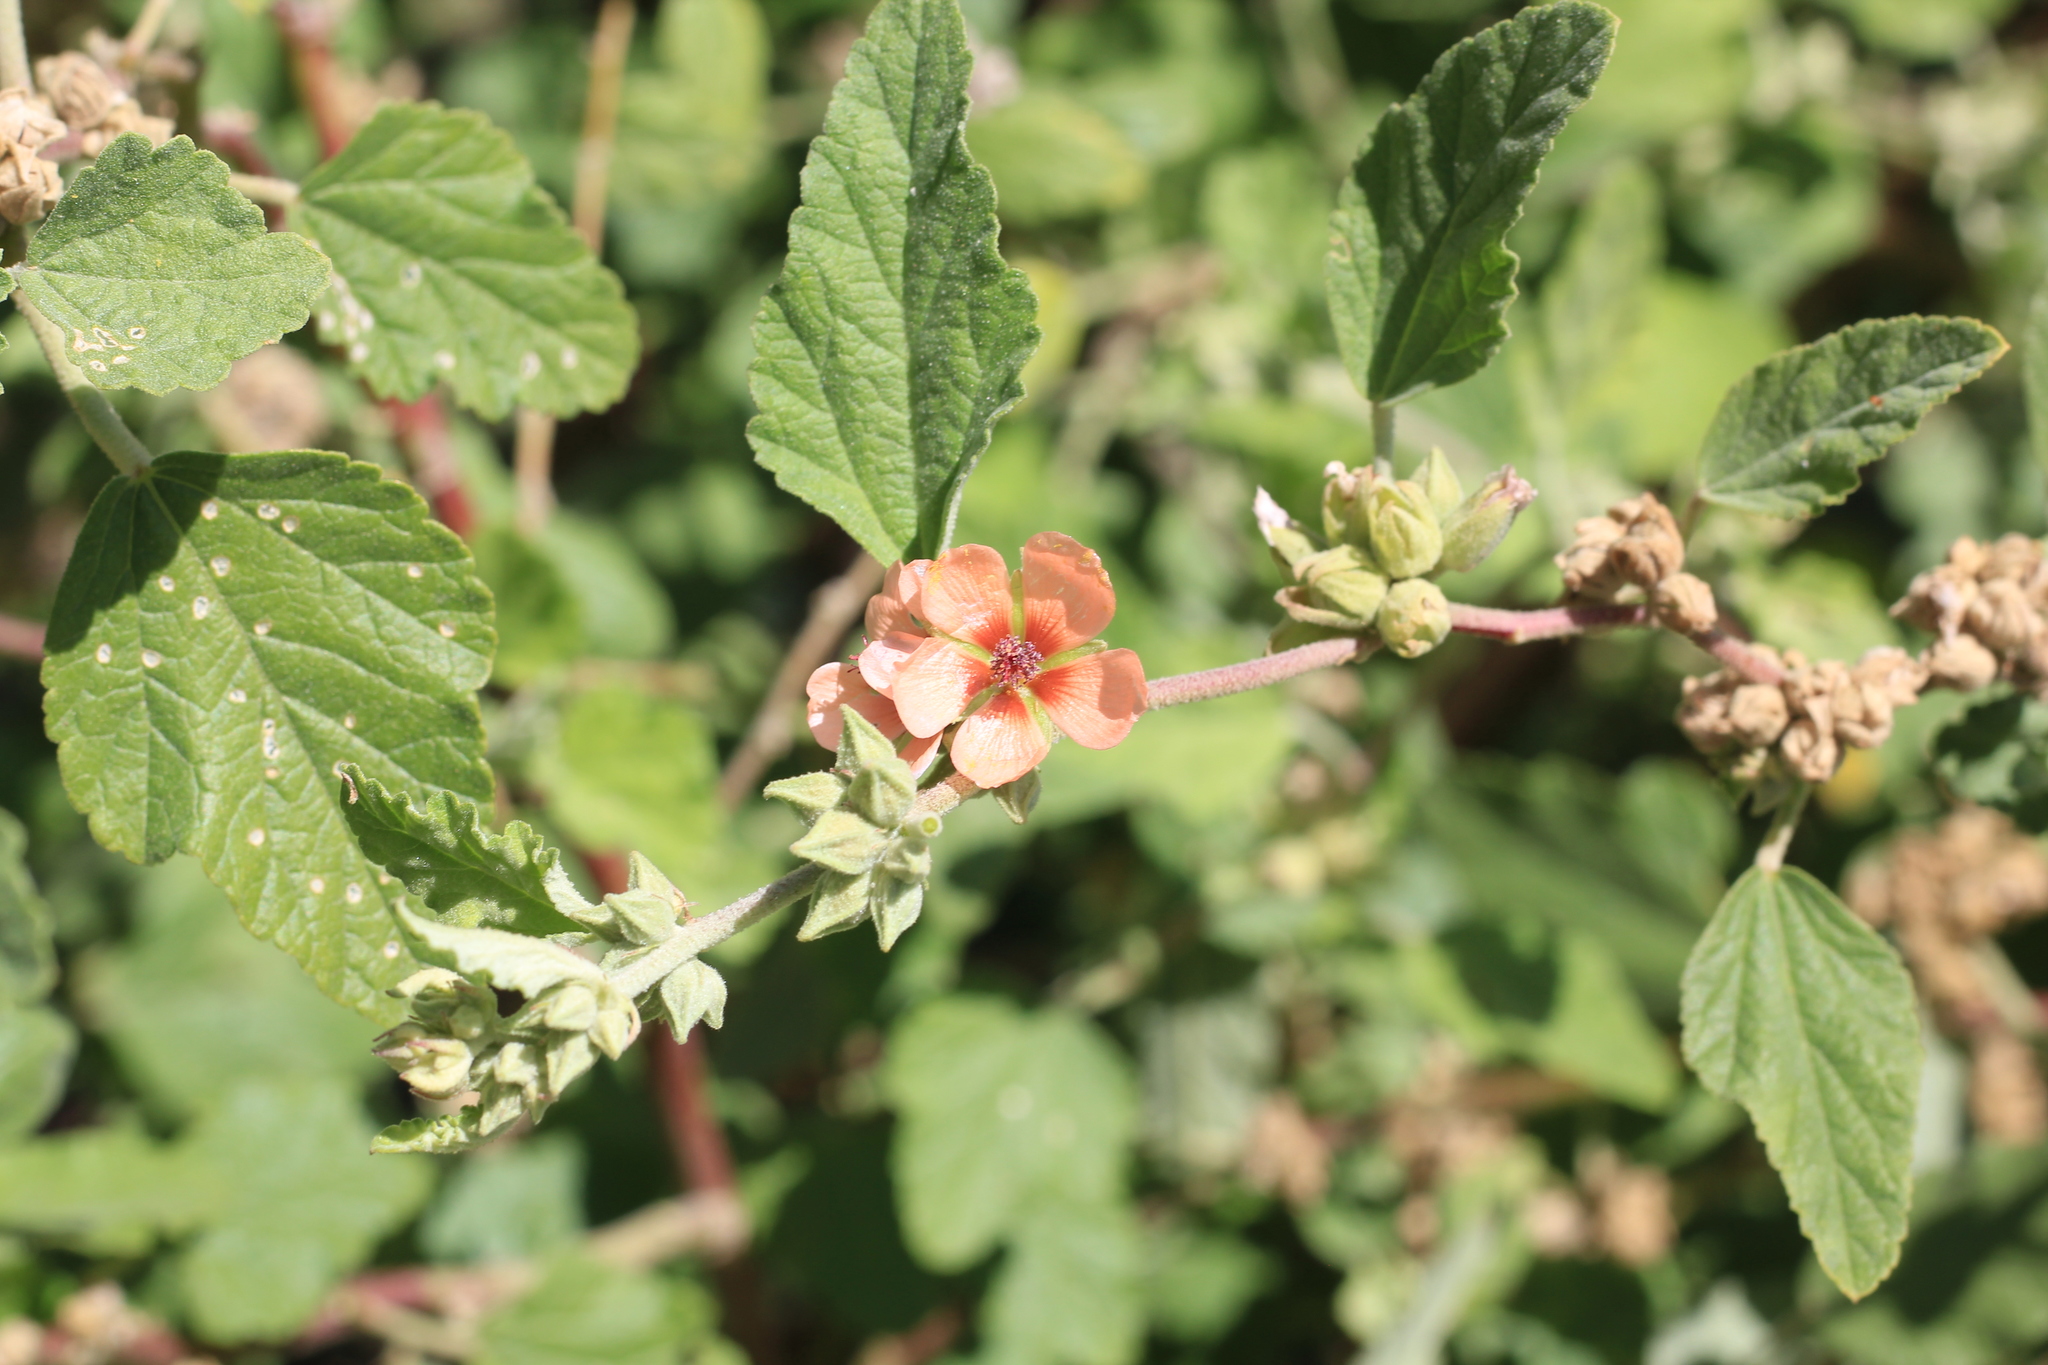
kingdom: Plantae
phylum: Tracheophyta
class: Magnoliopsida
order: Malvales
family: Malvaceae
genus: Sphaeralcea
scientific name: Sphaeralcea bonariensis
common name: Latin globemallow
